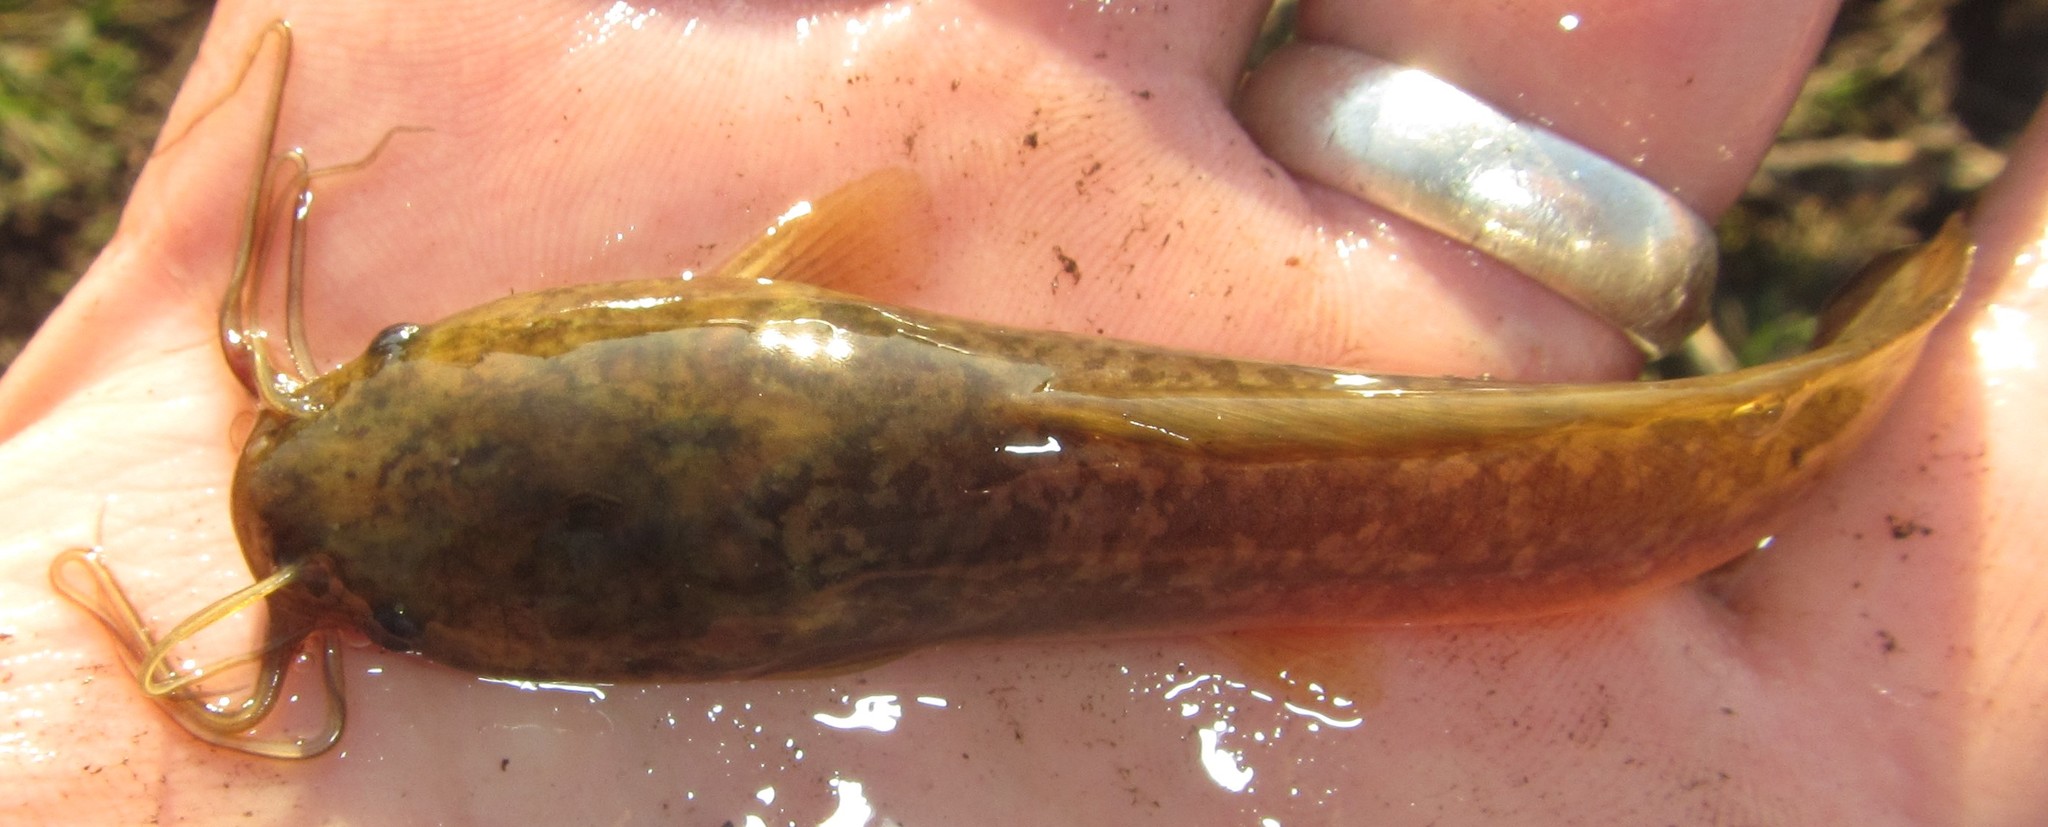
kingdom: Animalia
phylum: Chordata
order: Siluriformes
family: Clariidae
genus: Clarias
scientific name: Clarias ngamensis
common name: Blunt-toothed african catfish
